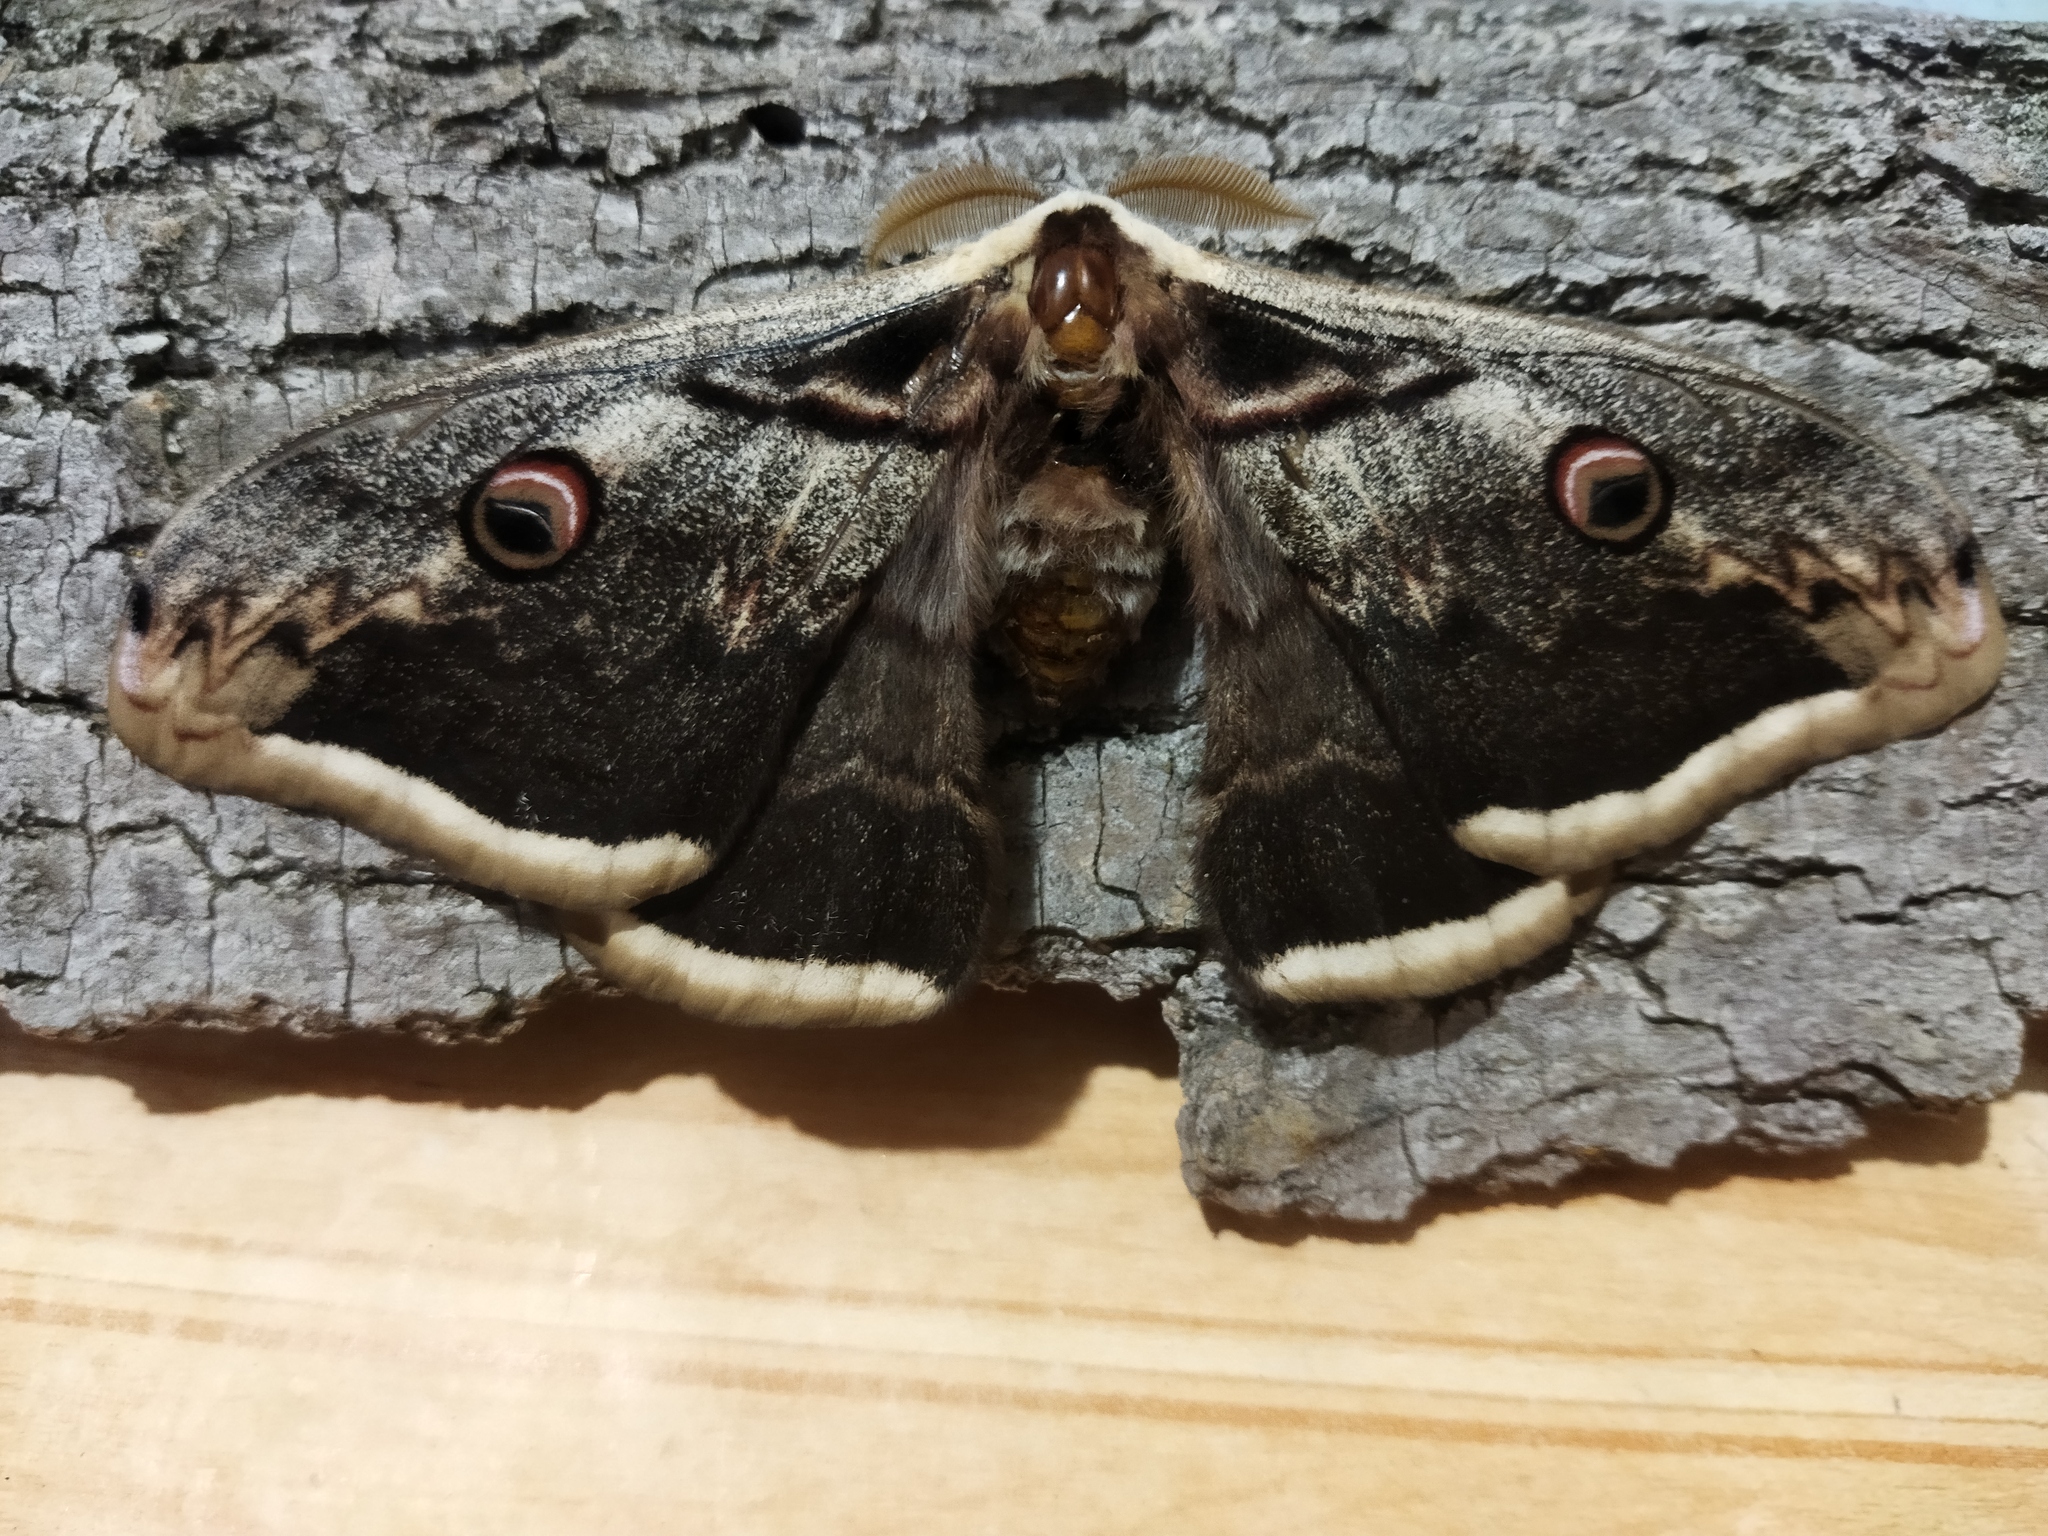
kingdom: Animalia
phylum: Arthropoda
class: Insecta
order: Lepidoptera
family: Saturniidae
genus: Saturnia
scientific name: Saturnia pyri
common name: Great peacock moth
